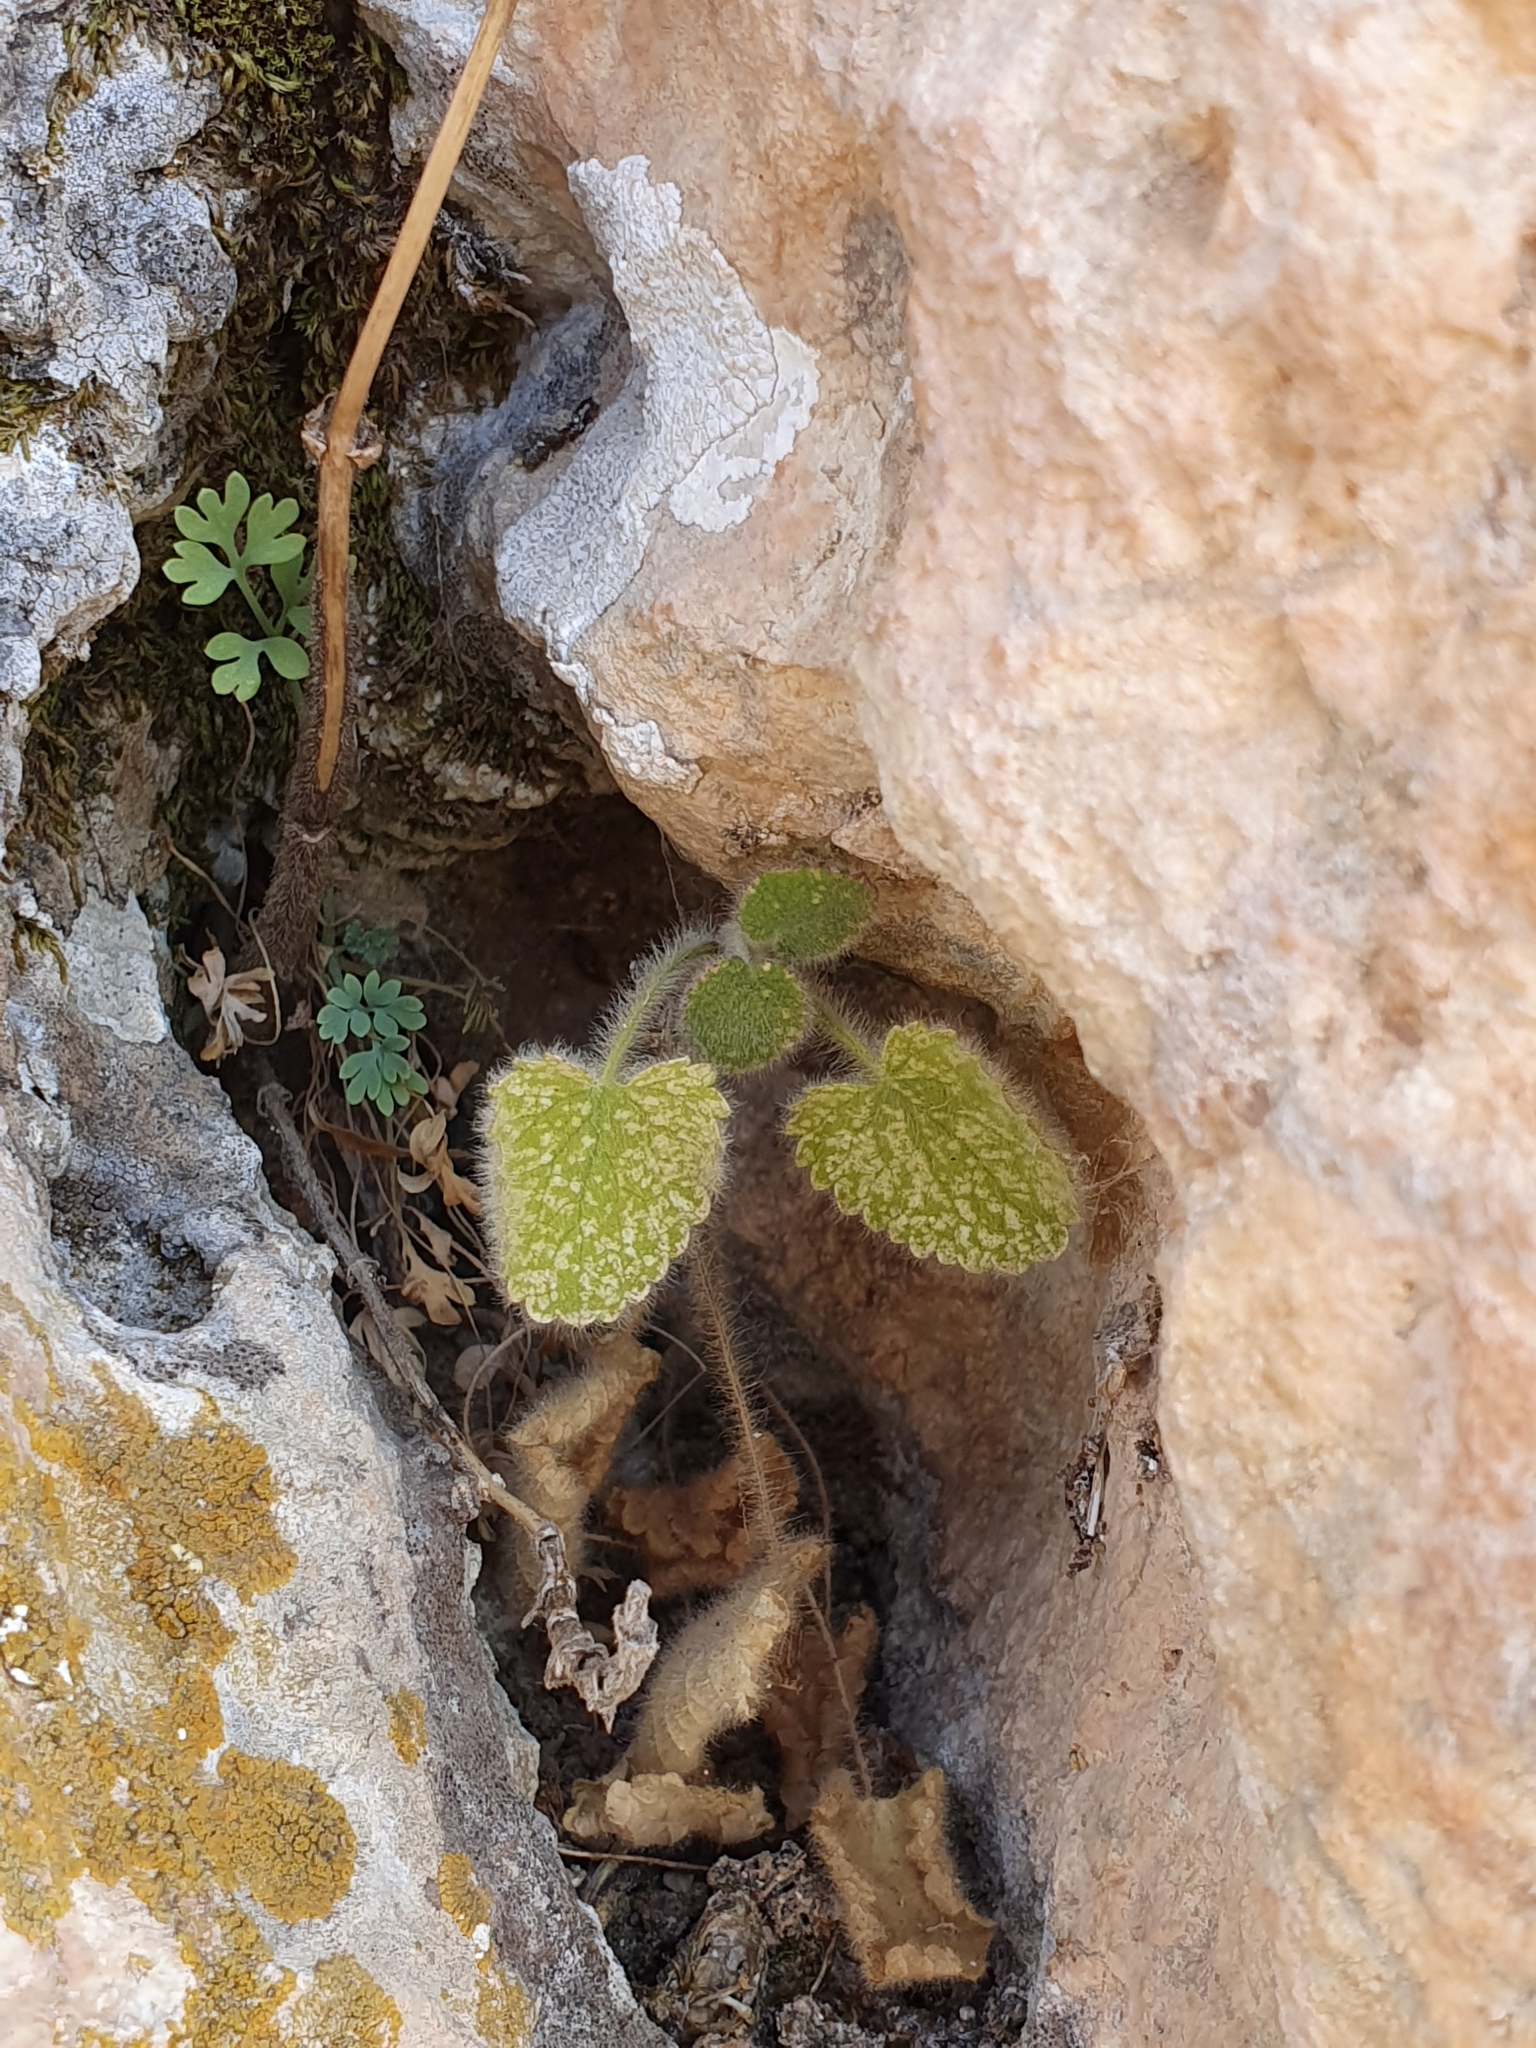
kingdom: Plantae
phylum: Tracheophyta
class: Magnoliopsida
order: Lamiales
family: Lamiaceae
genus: Stachys
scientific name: Stachys circinata
